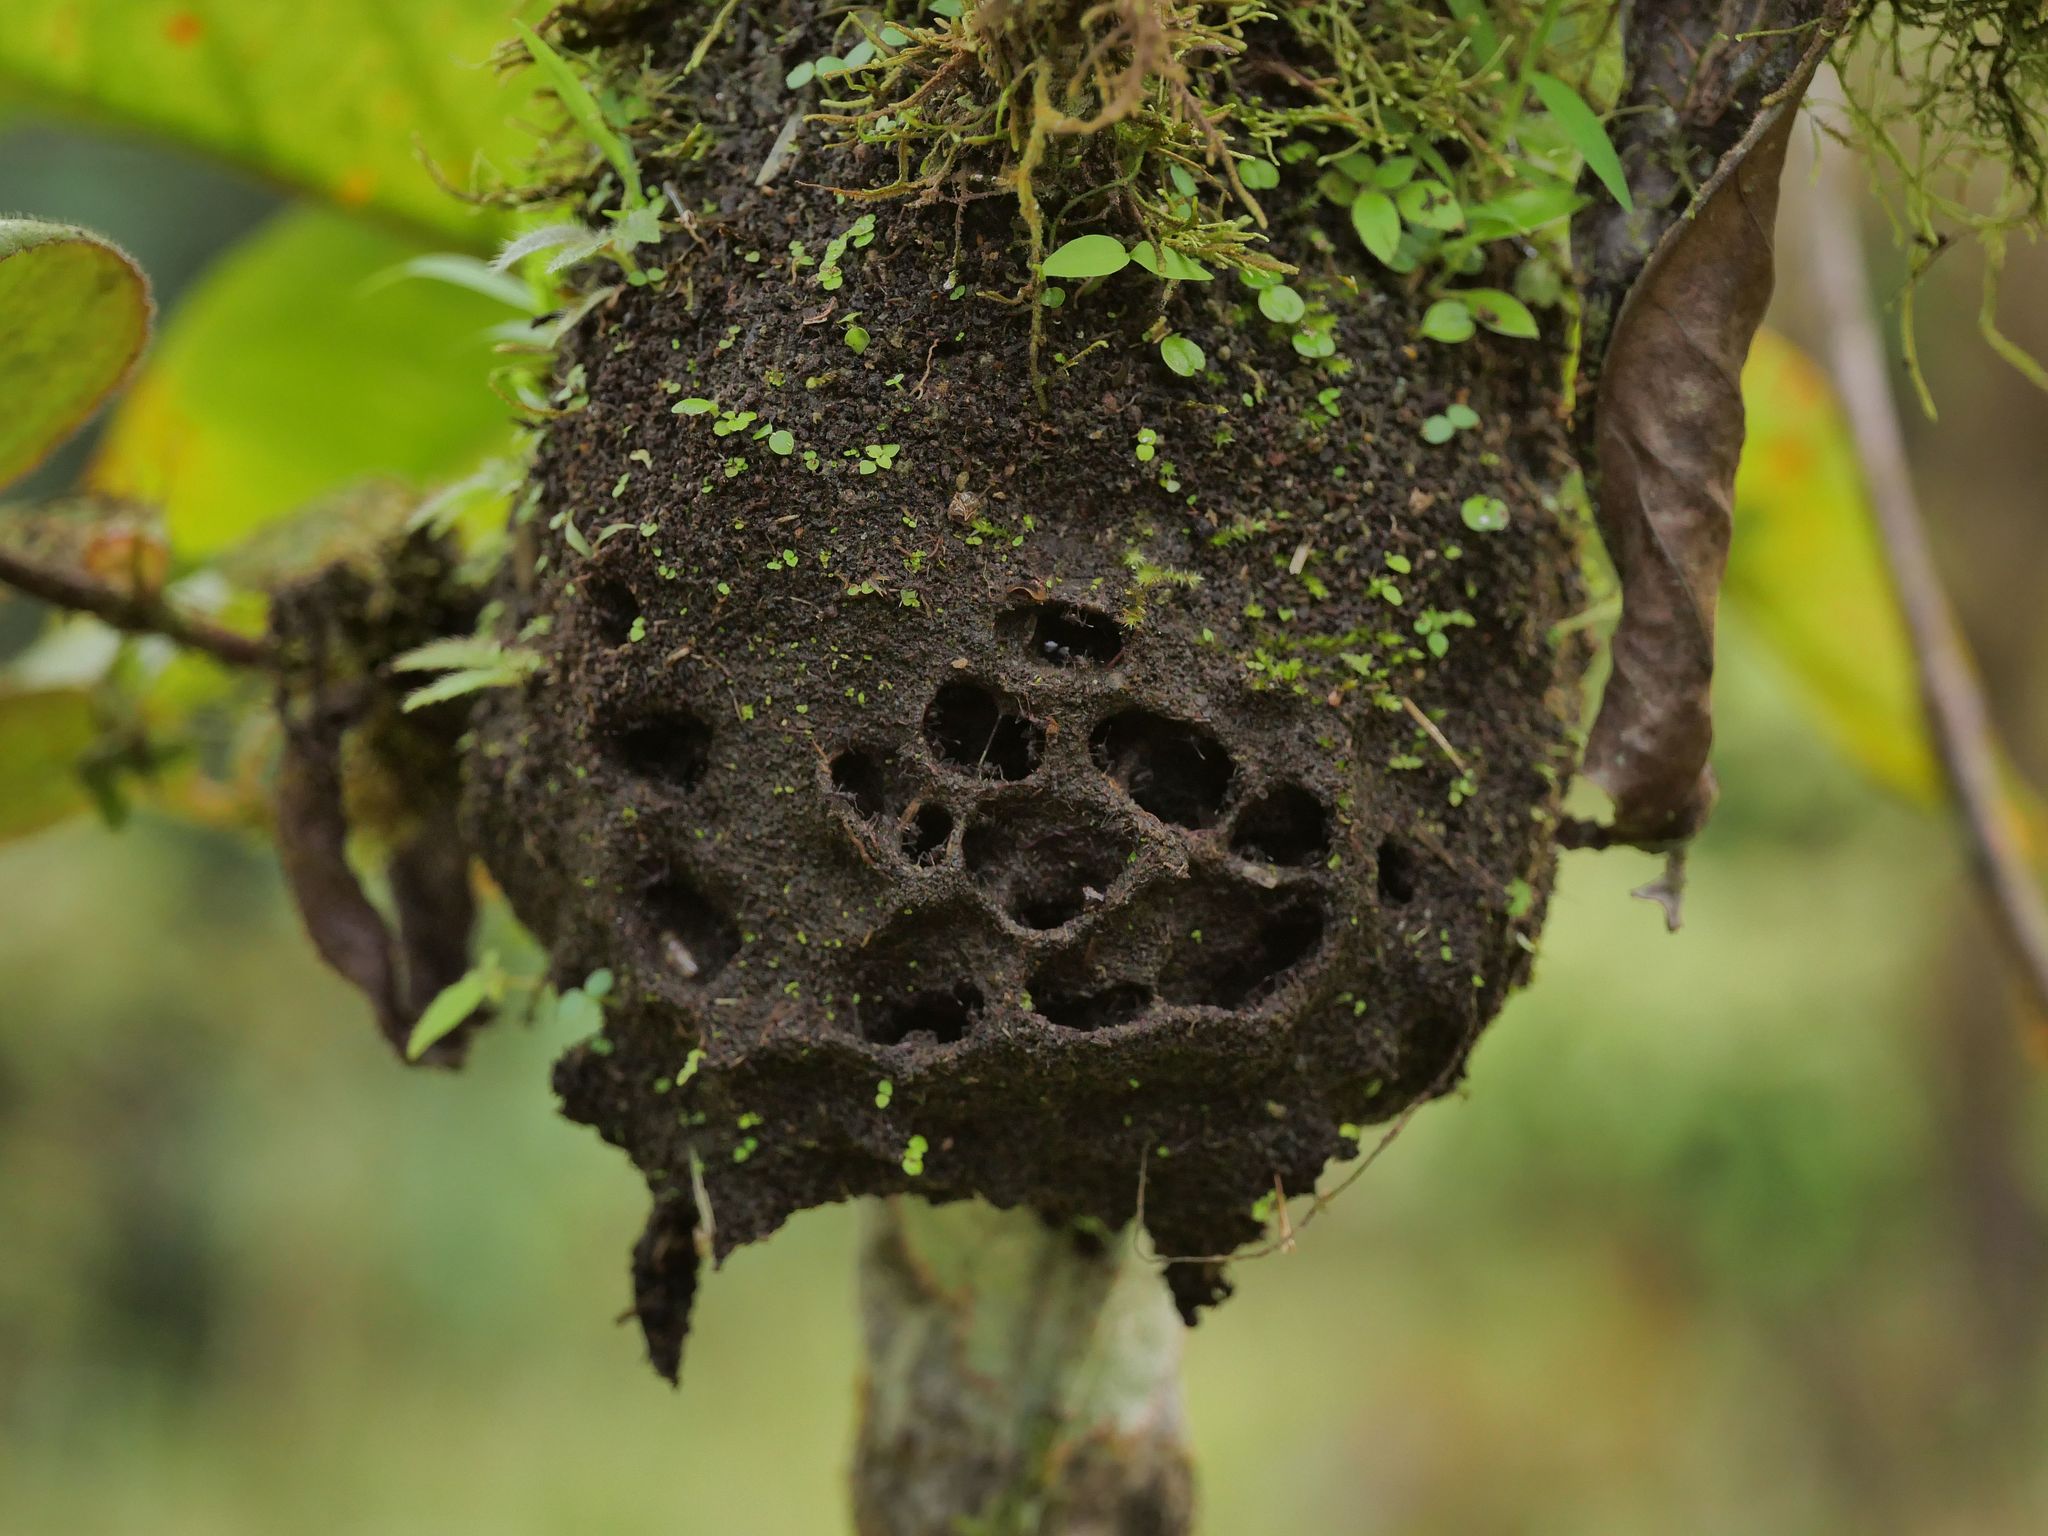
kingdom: Animalia
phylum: Arthropoda
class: Insecta
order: Hymenoptera
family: Formicidae
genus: Cyphomyrmex
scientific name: Cyphomyrmex cornutus
